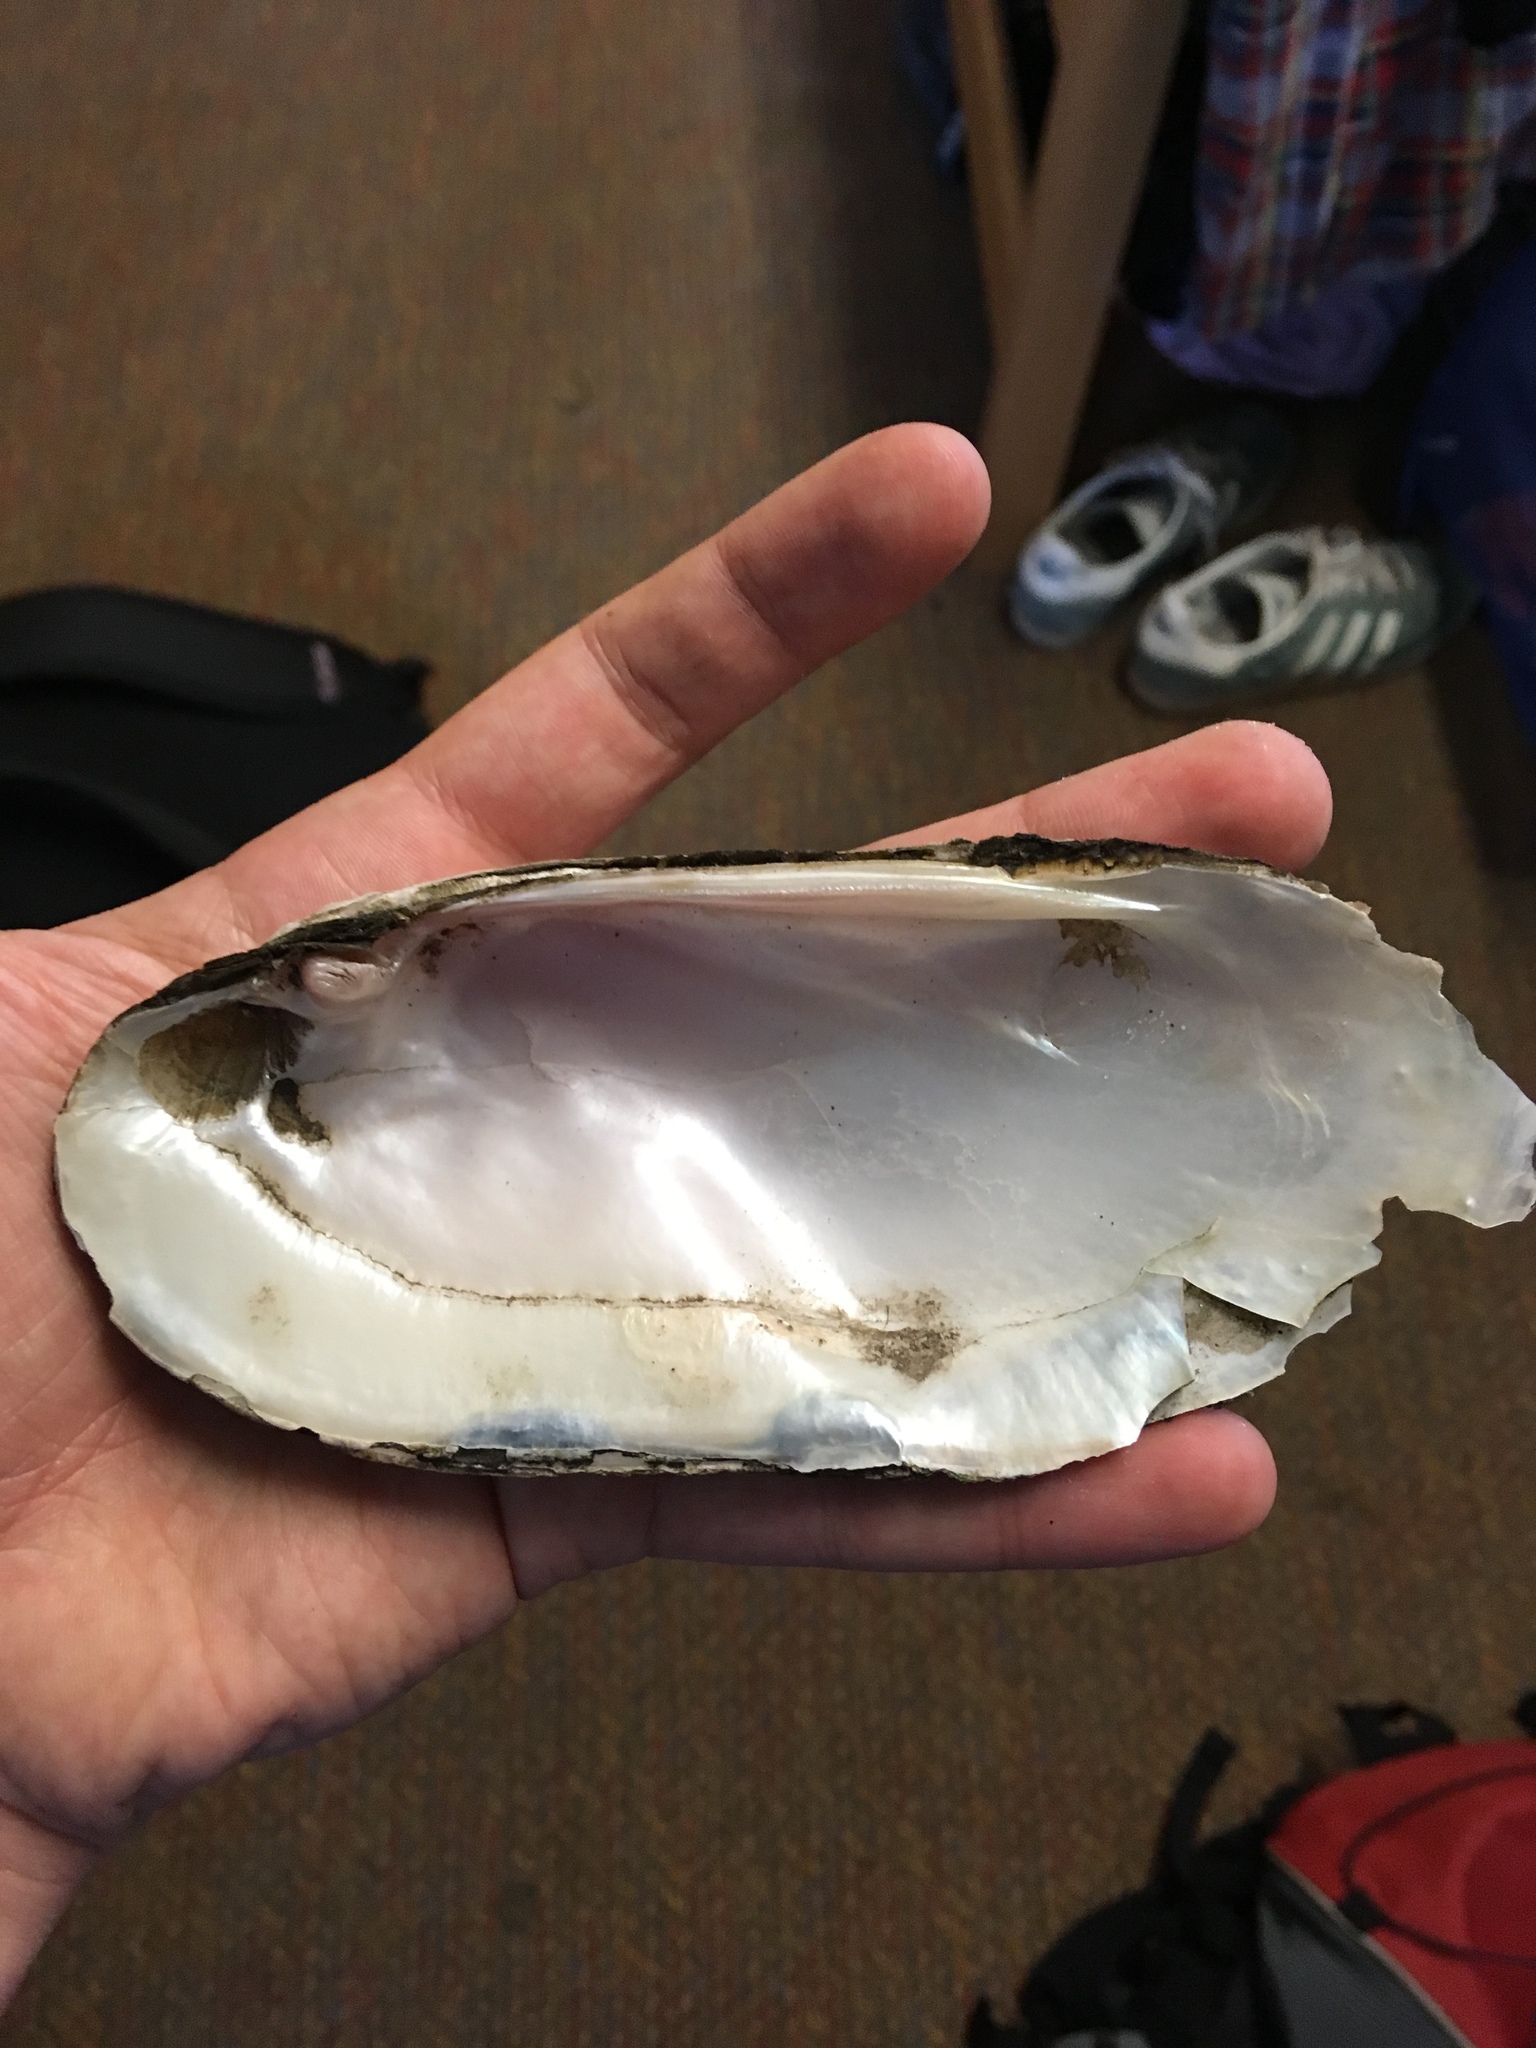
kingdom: Animalia
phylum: Mollusca
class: Bivalvia
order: Unionida
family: Unionidae
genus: Ligumia
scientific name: Ligumia recta
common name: Black sandshell
